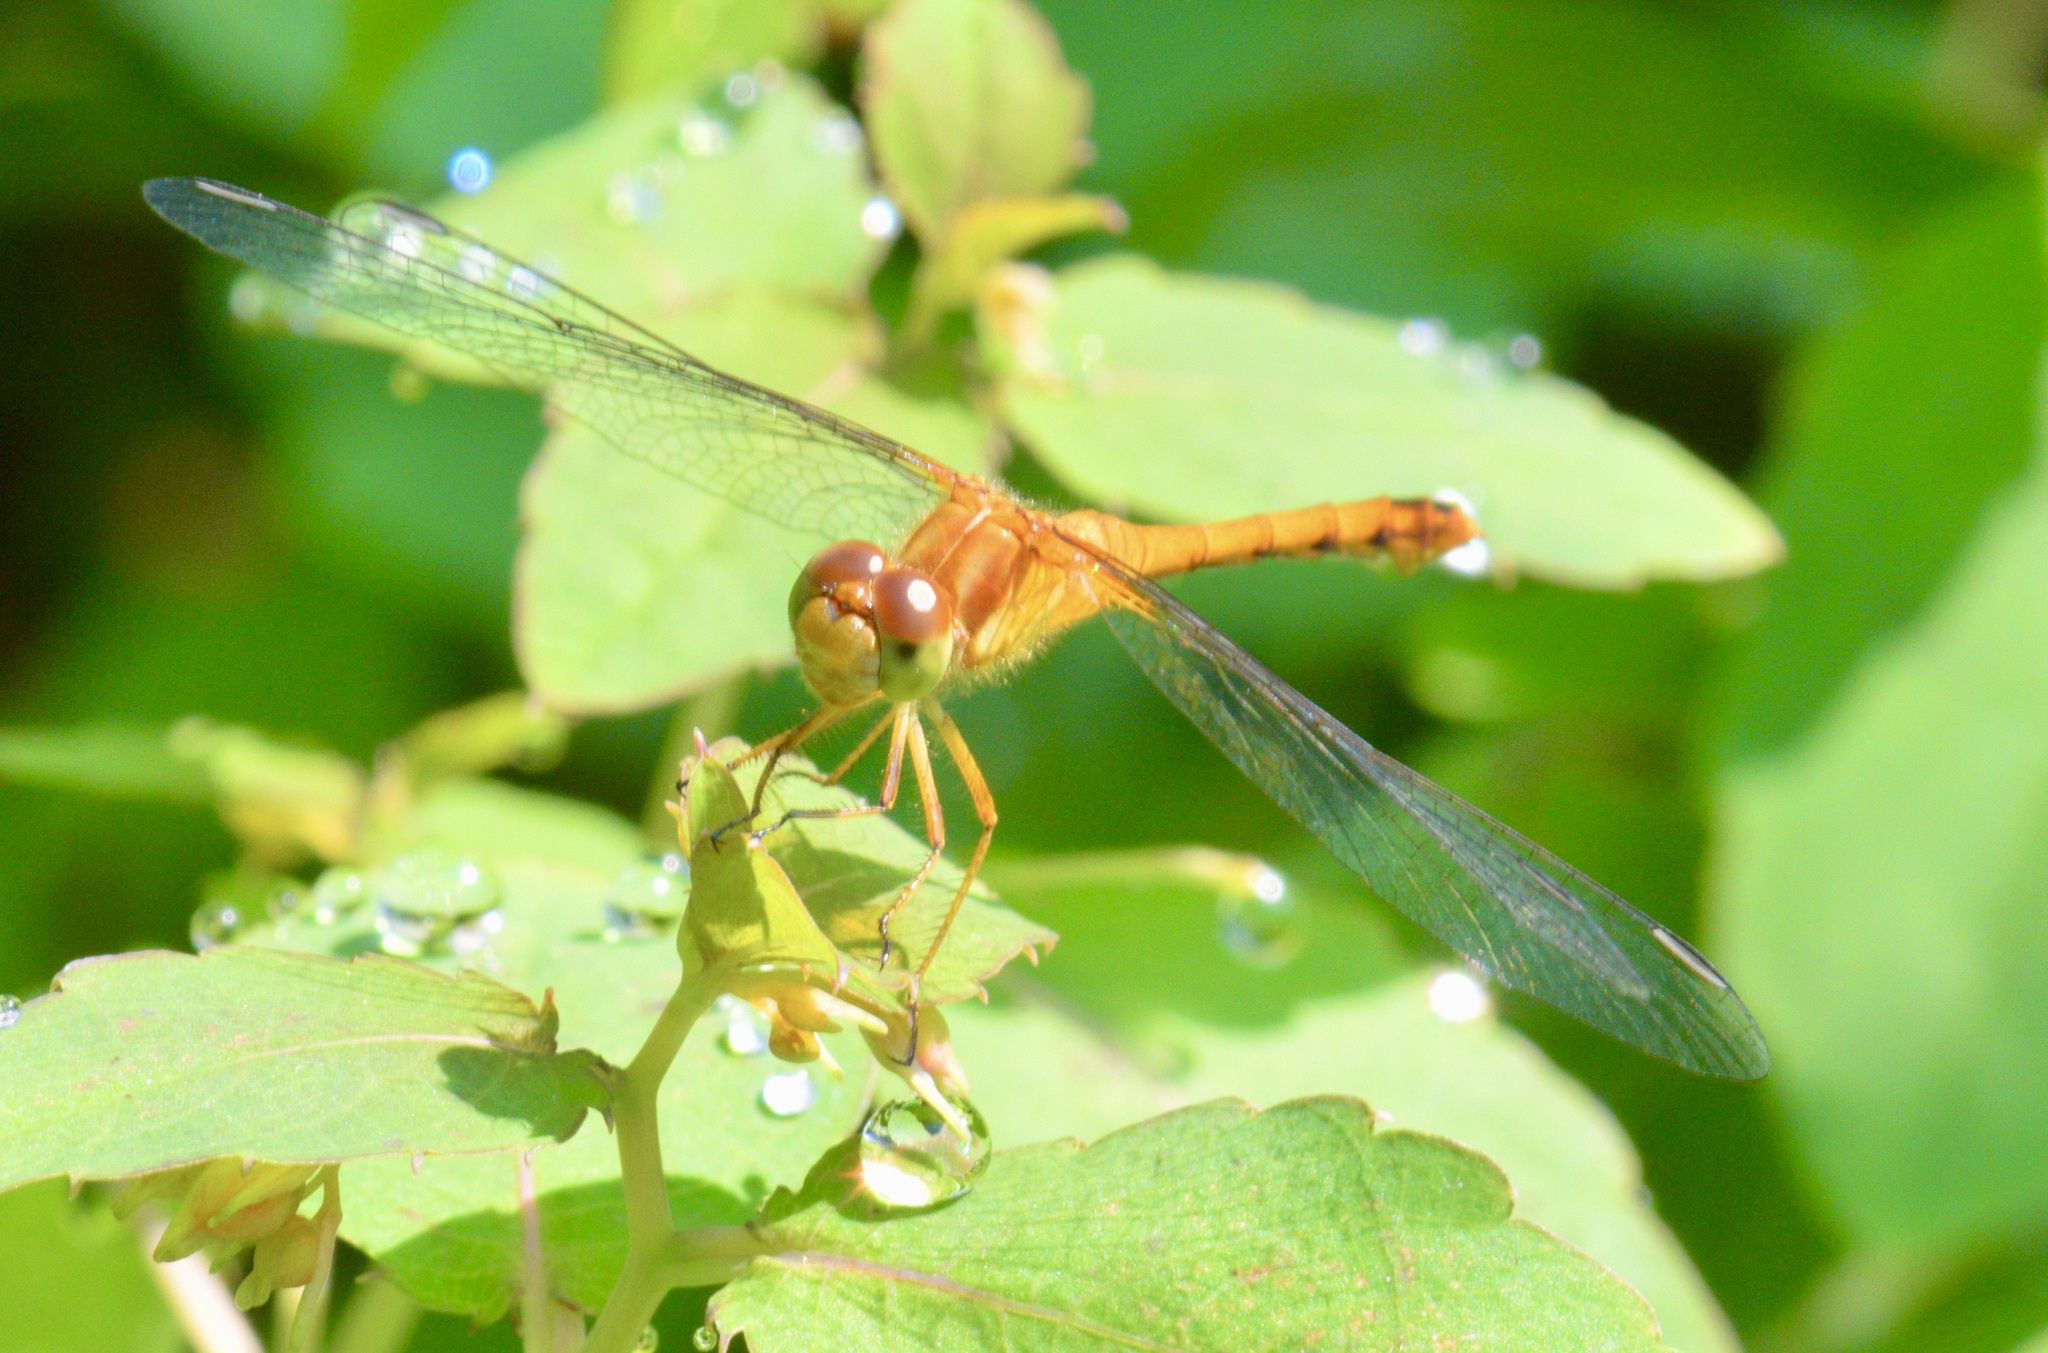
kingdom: Animalia
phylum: Arthropoda
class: Insecta
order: Odonata
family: Libellulidae
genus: Sympetrum
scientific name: Sympetrum vicinum
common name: Autumn meadowhawk
